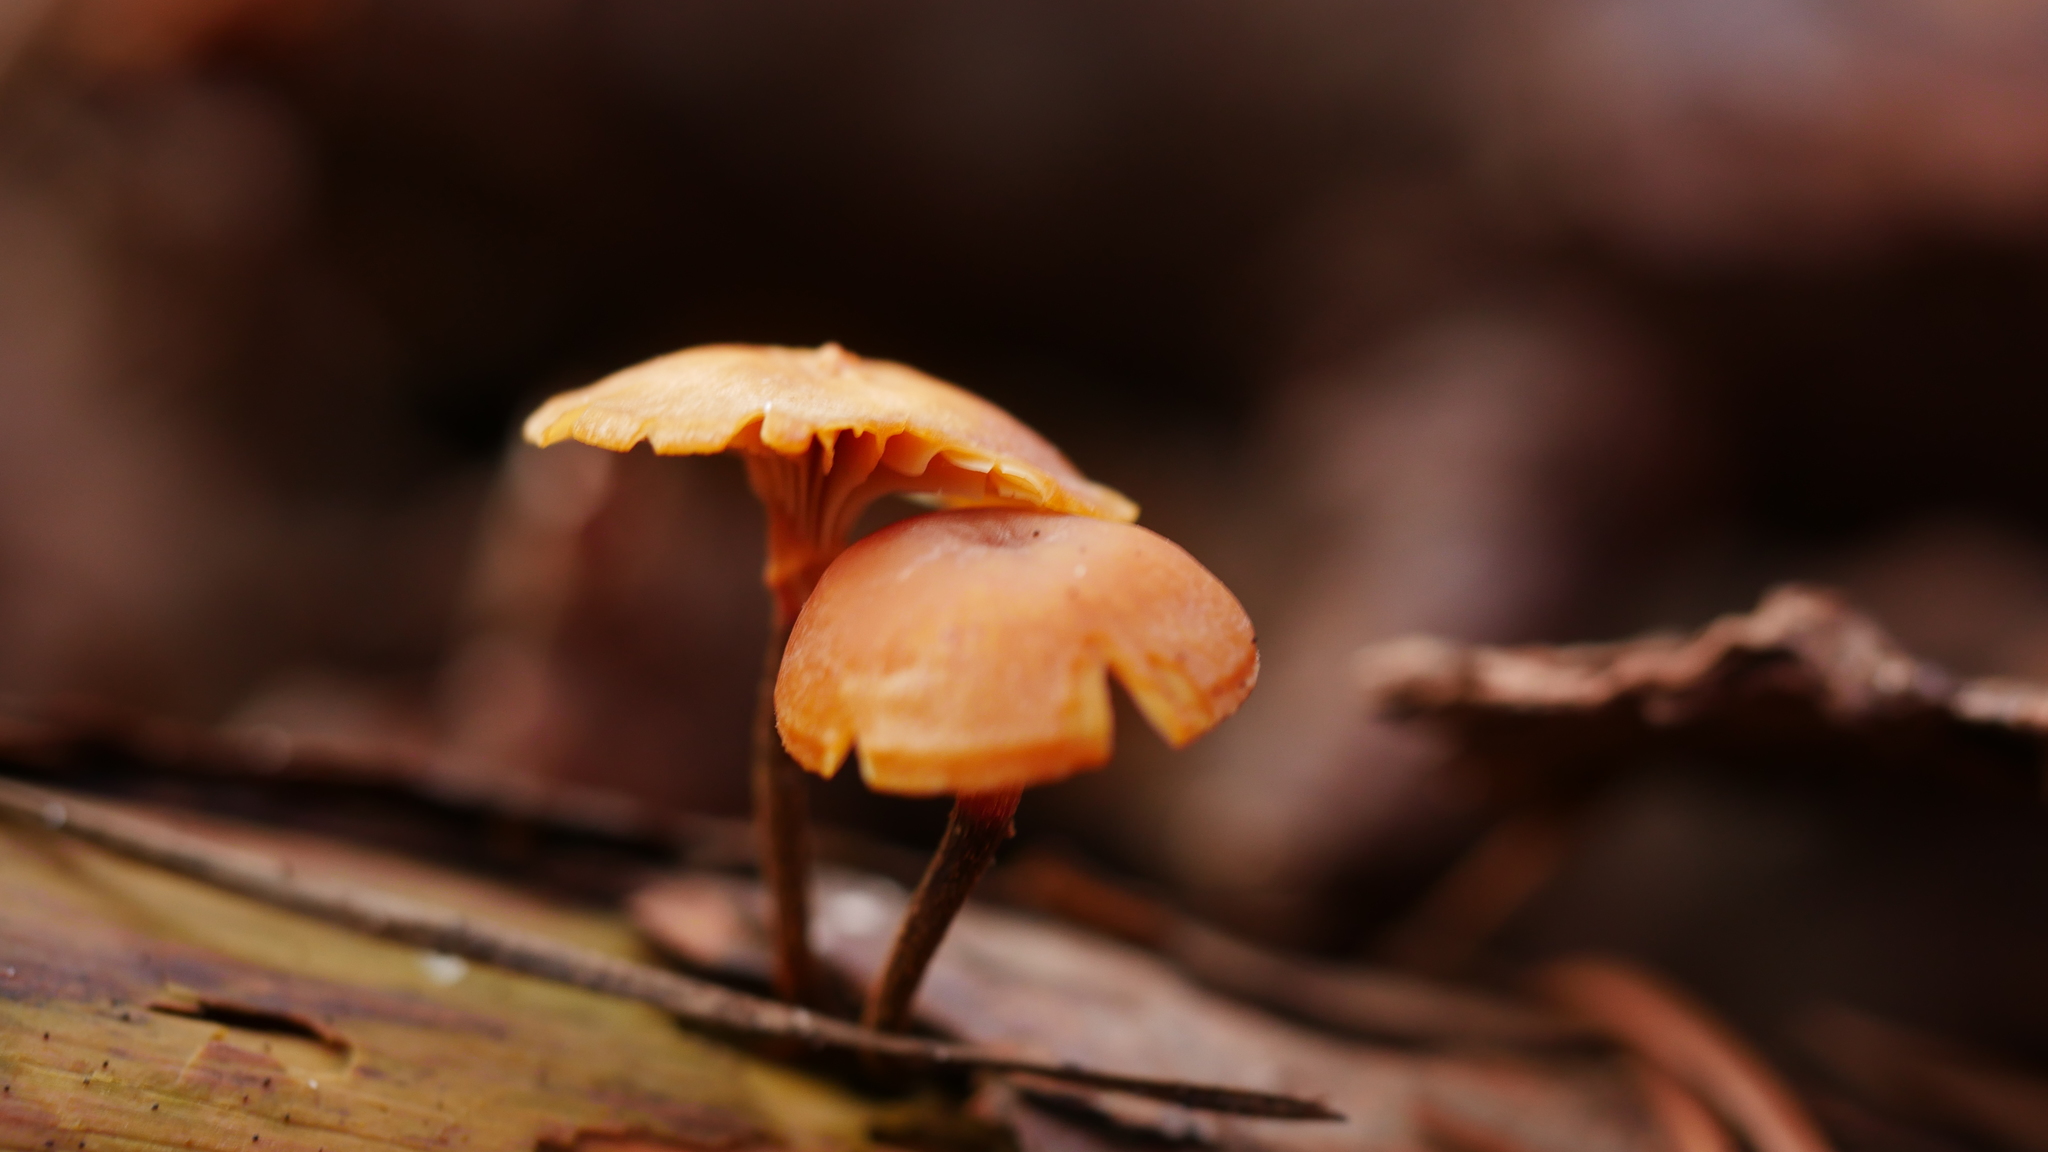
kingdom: Fungi
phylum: Basidiomycota
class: Agaricomycetes
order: Agaricales
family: Mycenaceae
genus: Xeromphalina
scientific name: Xeromphalina campanella
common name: Pinewood gingertail
